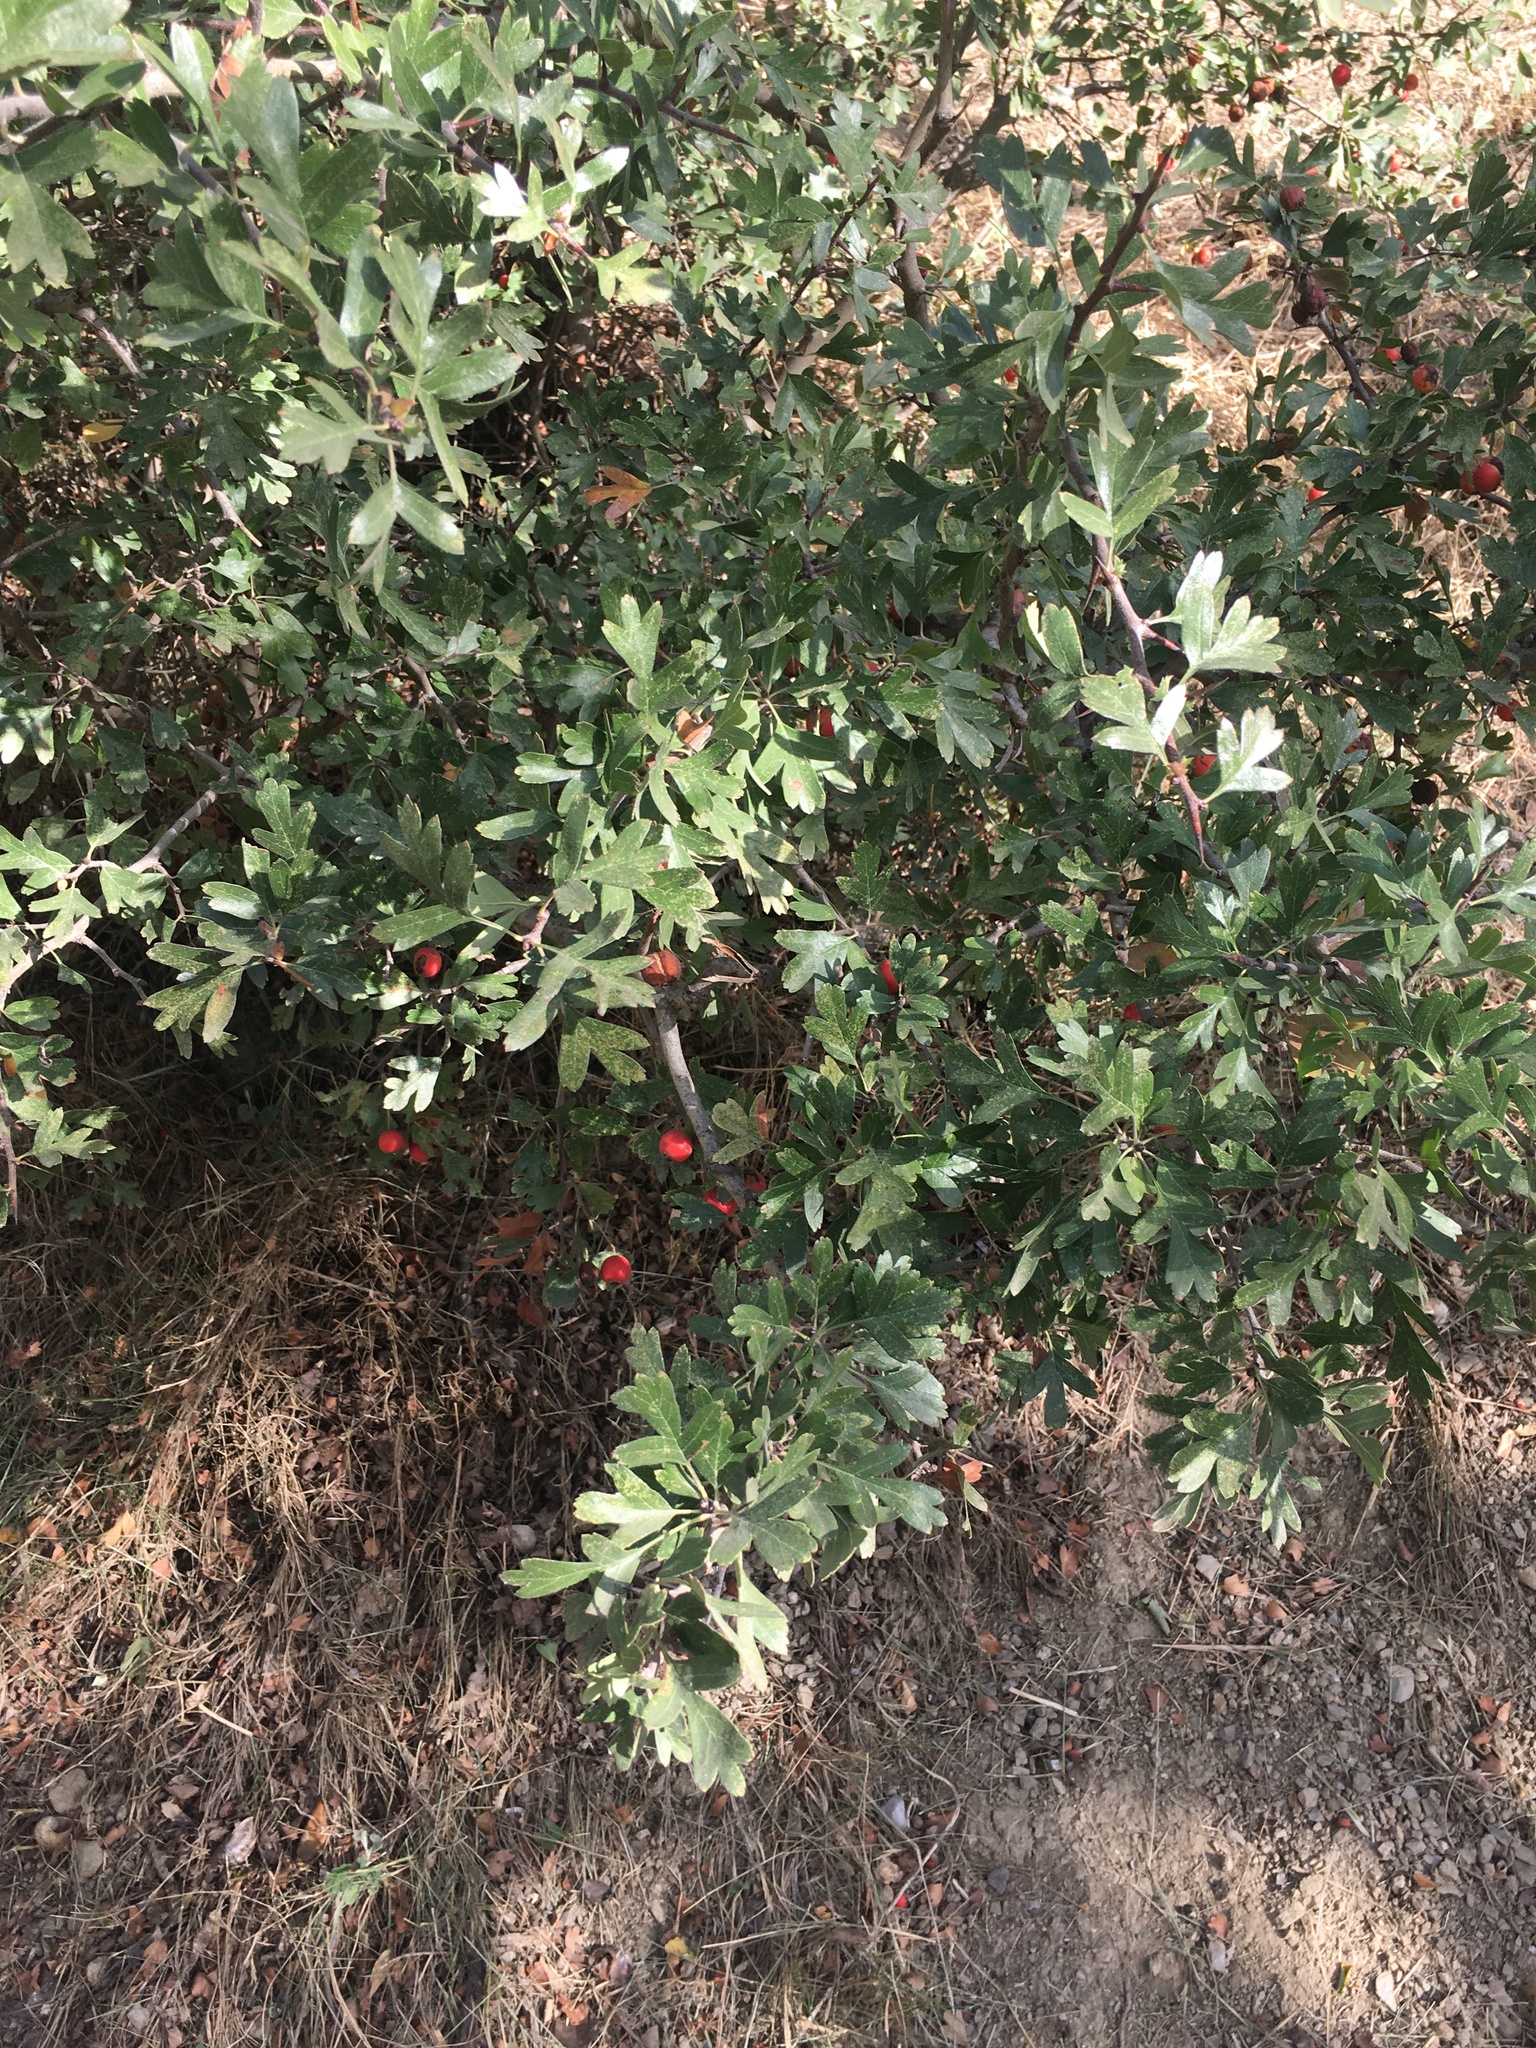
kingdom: Plantae
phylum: Tracheophyta
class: Magnoliopsida
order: Rosales
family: Rosaceae
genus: Crataegus
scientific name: Crataegus monogyna
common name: Hawthorn
